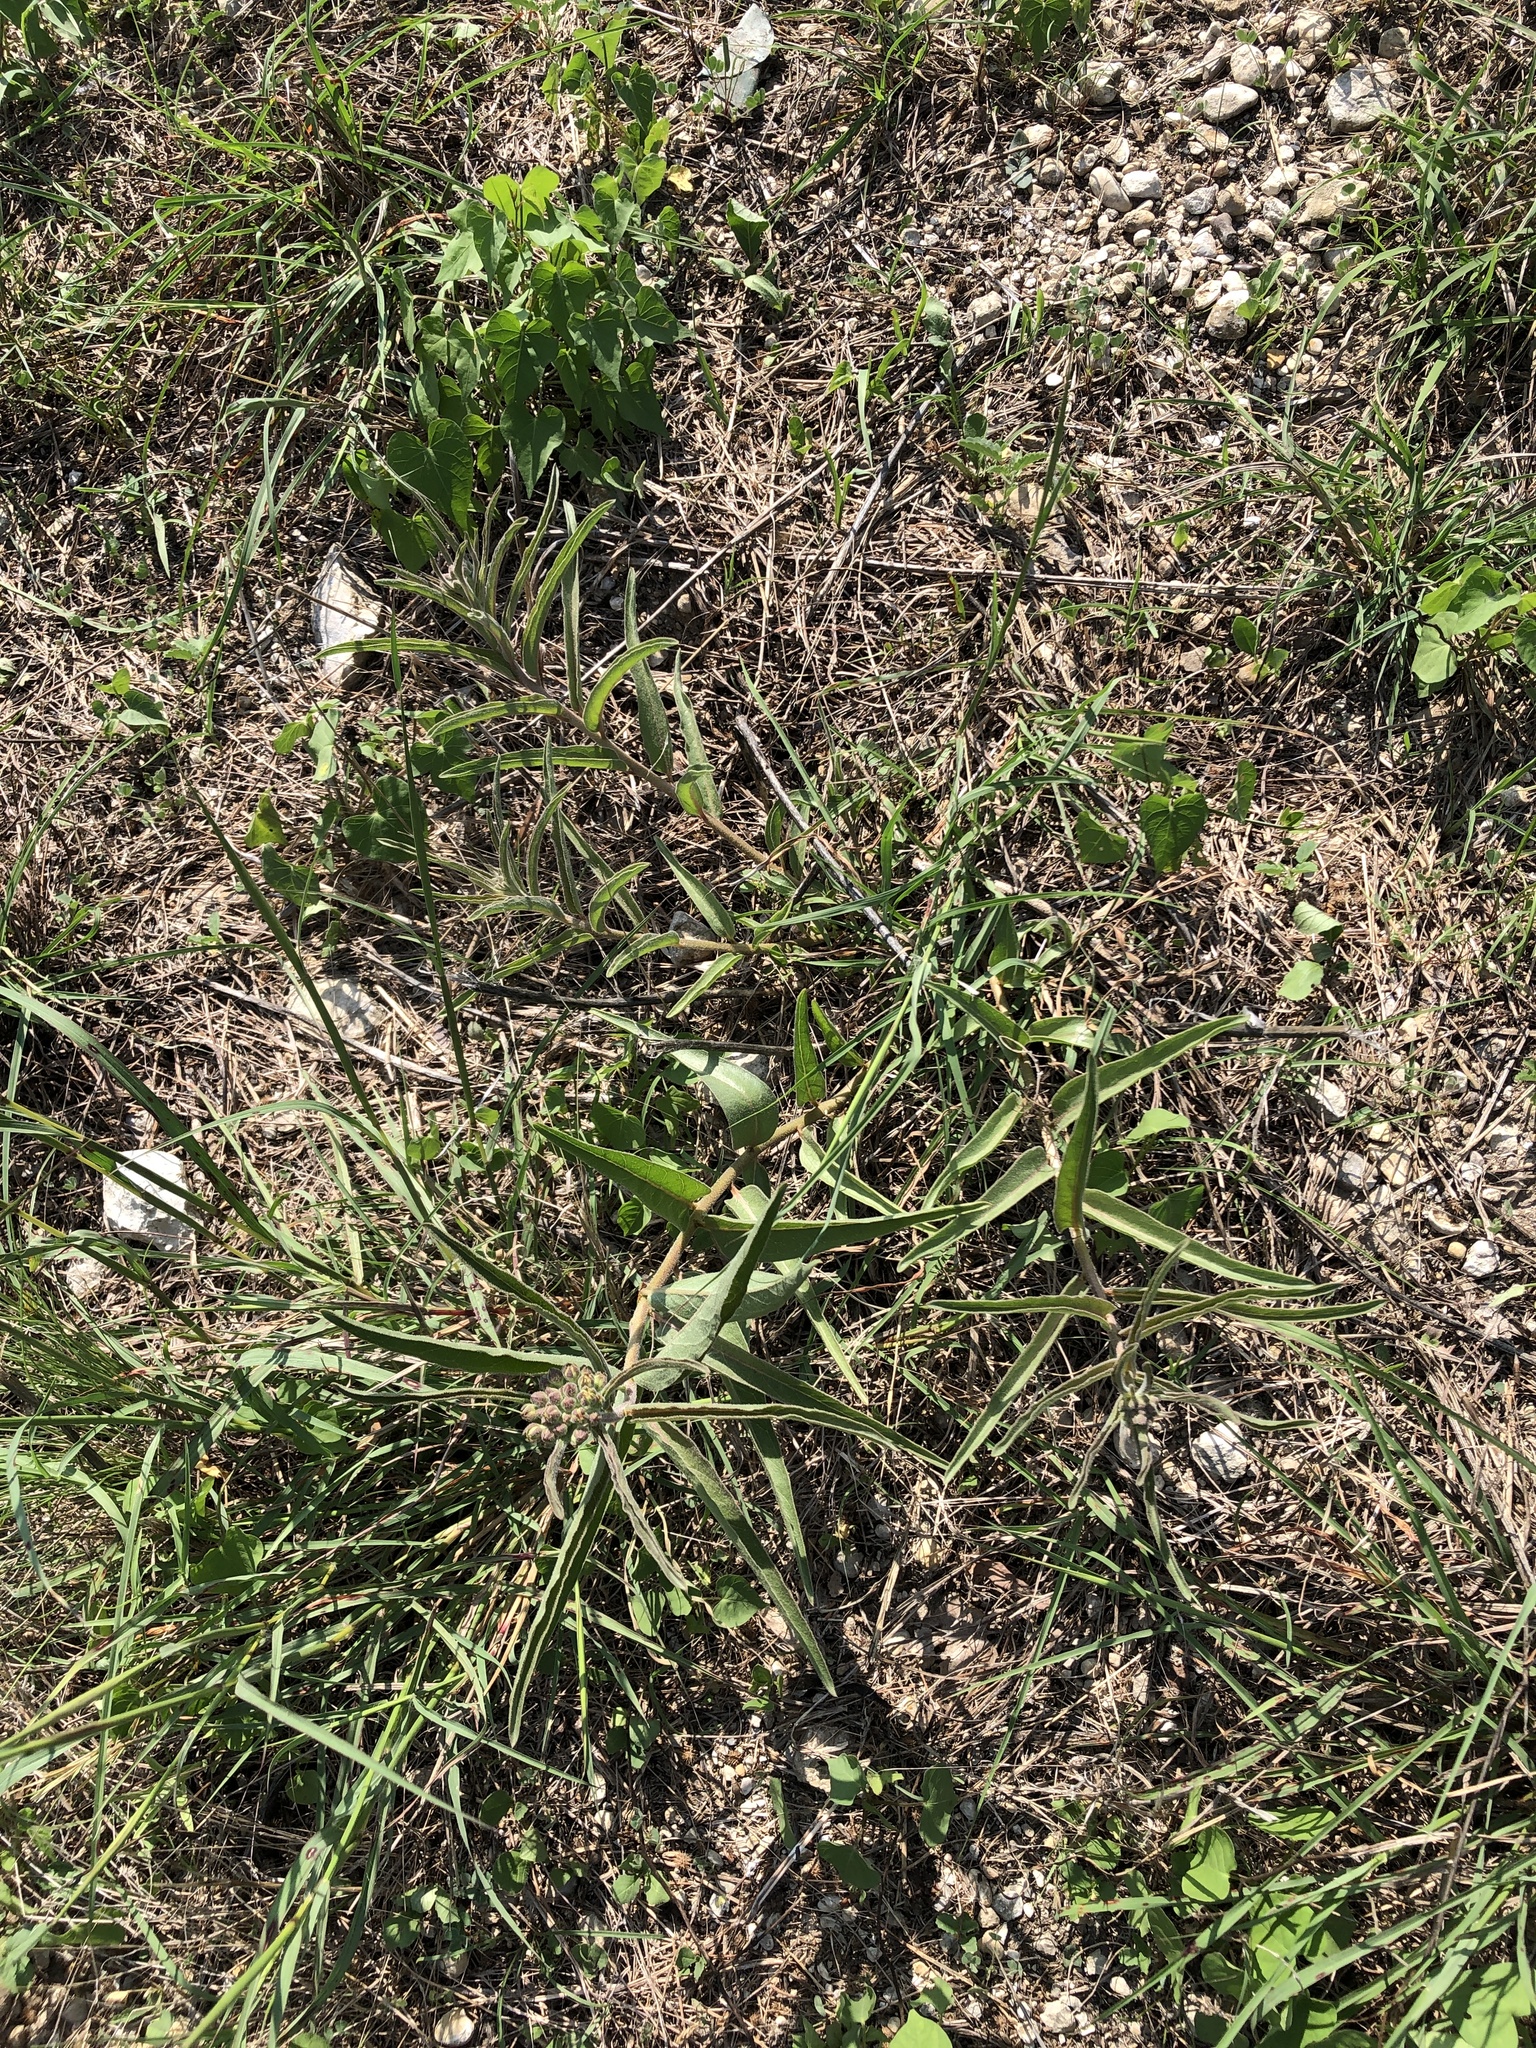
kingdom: Plantae
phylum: Tracheophyta
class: Magnoliopsida
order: Gentianales
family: Apocynaceae
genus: Asclepias
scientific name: Asclepias asperula
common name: Antelope horns
